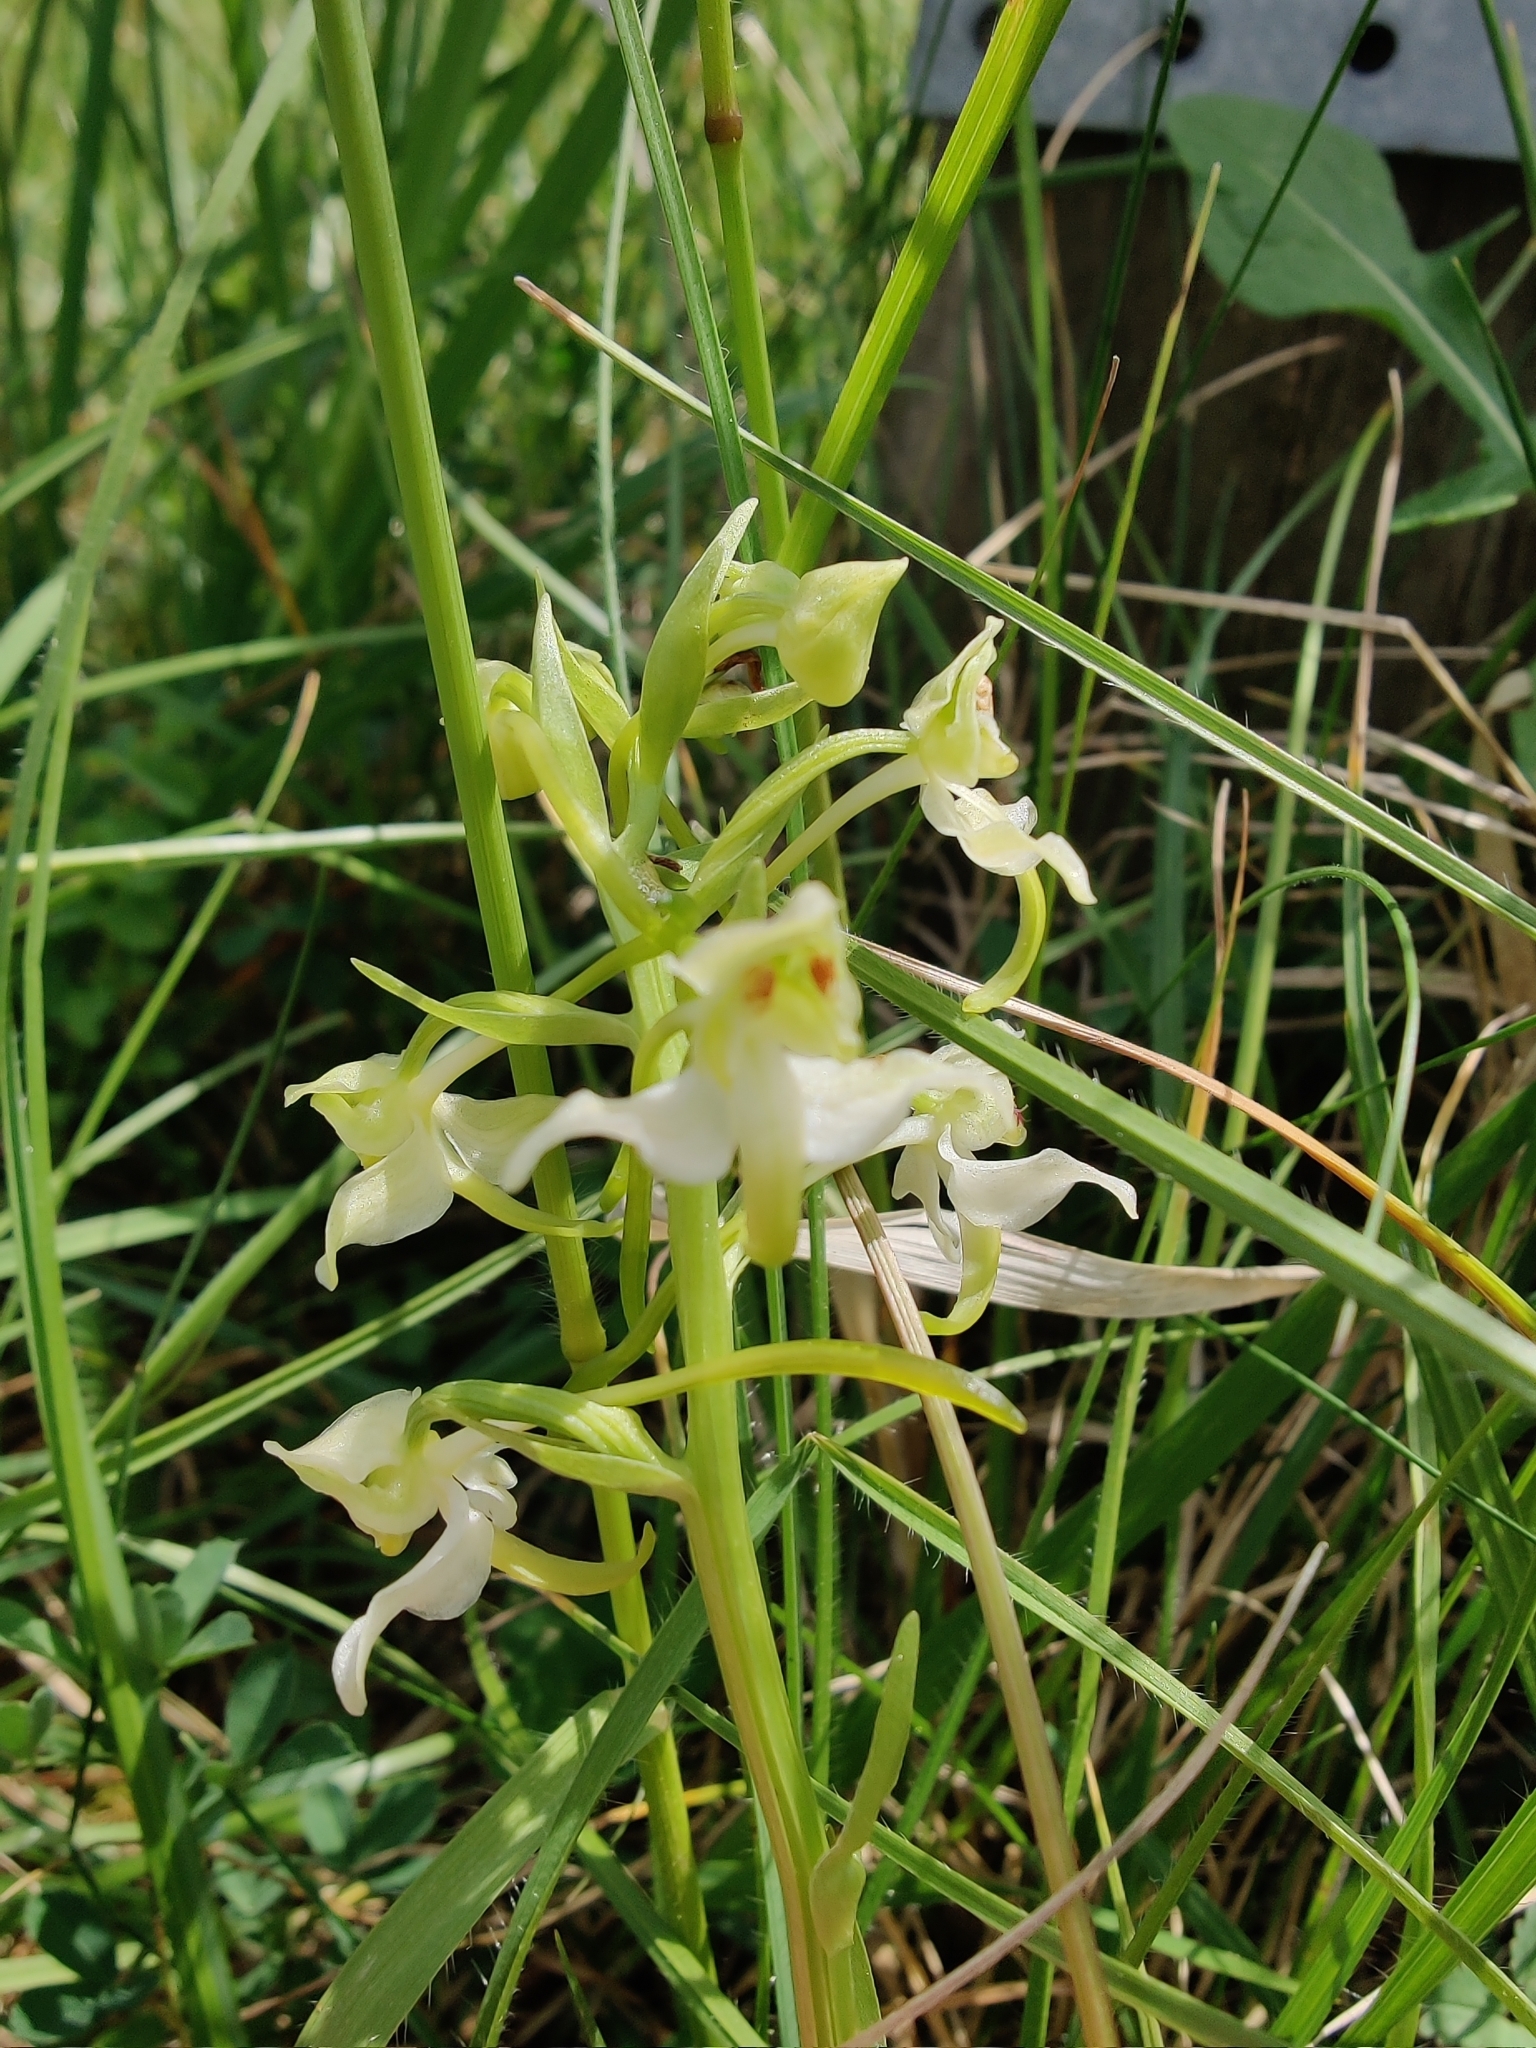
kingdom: Plantae
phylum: Tracheophyta
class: Liliopsida
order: Asparagales
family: Orchidaceae
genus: Platanthera
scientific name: Platanthera chlorantha
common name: Greater butterfly-orchid
